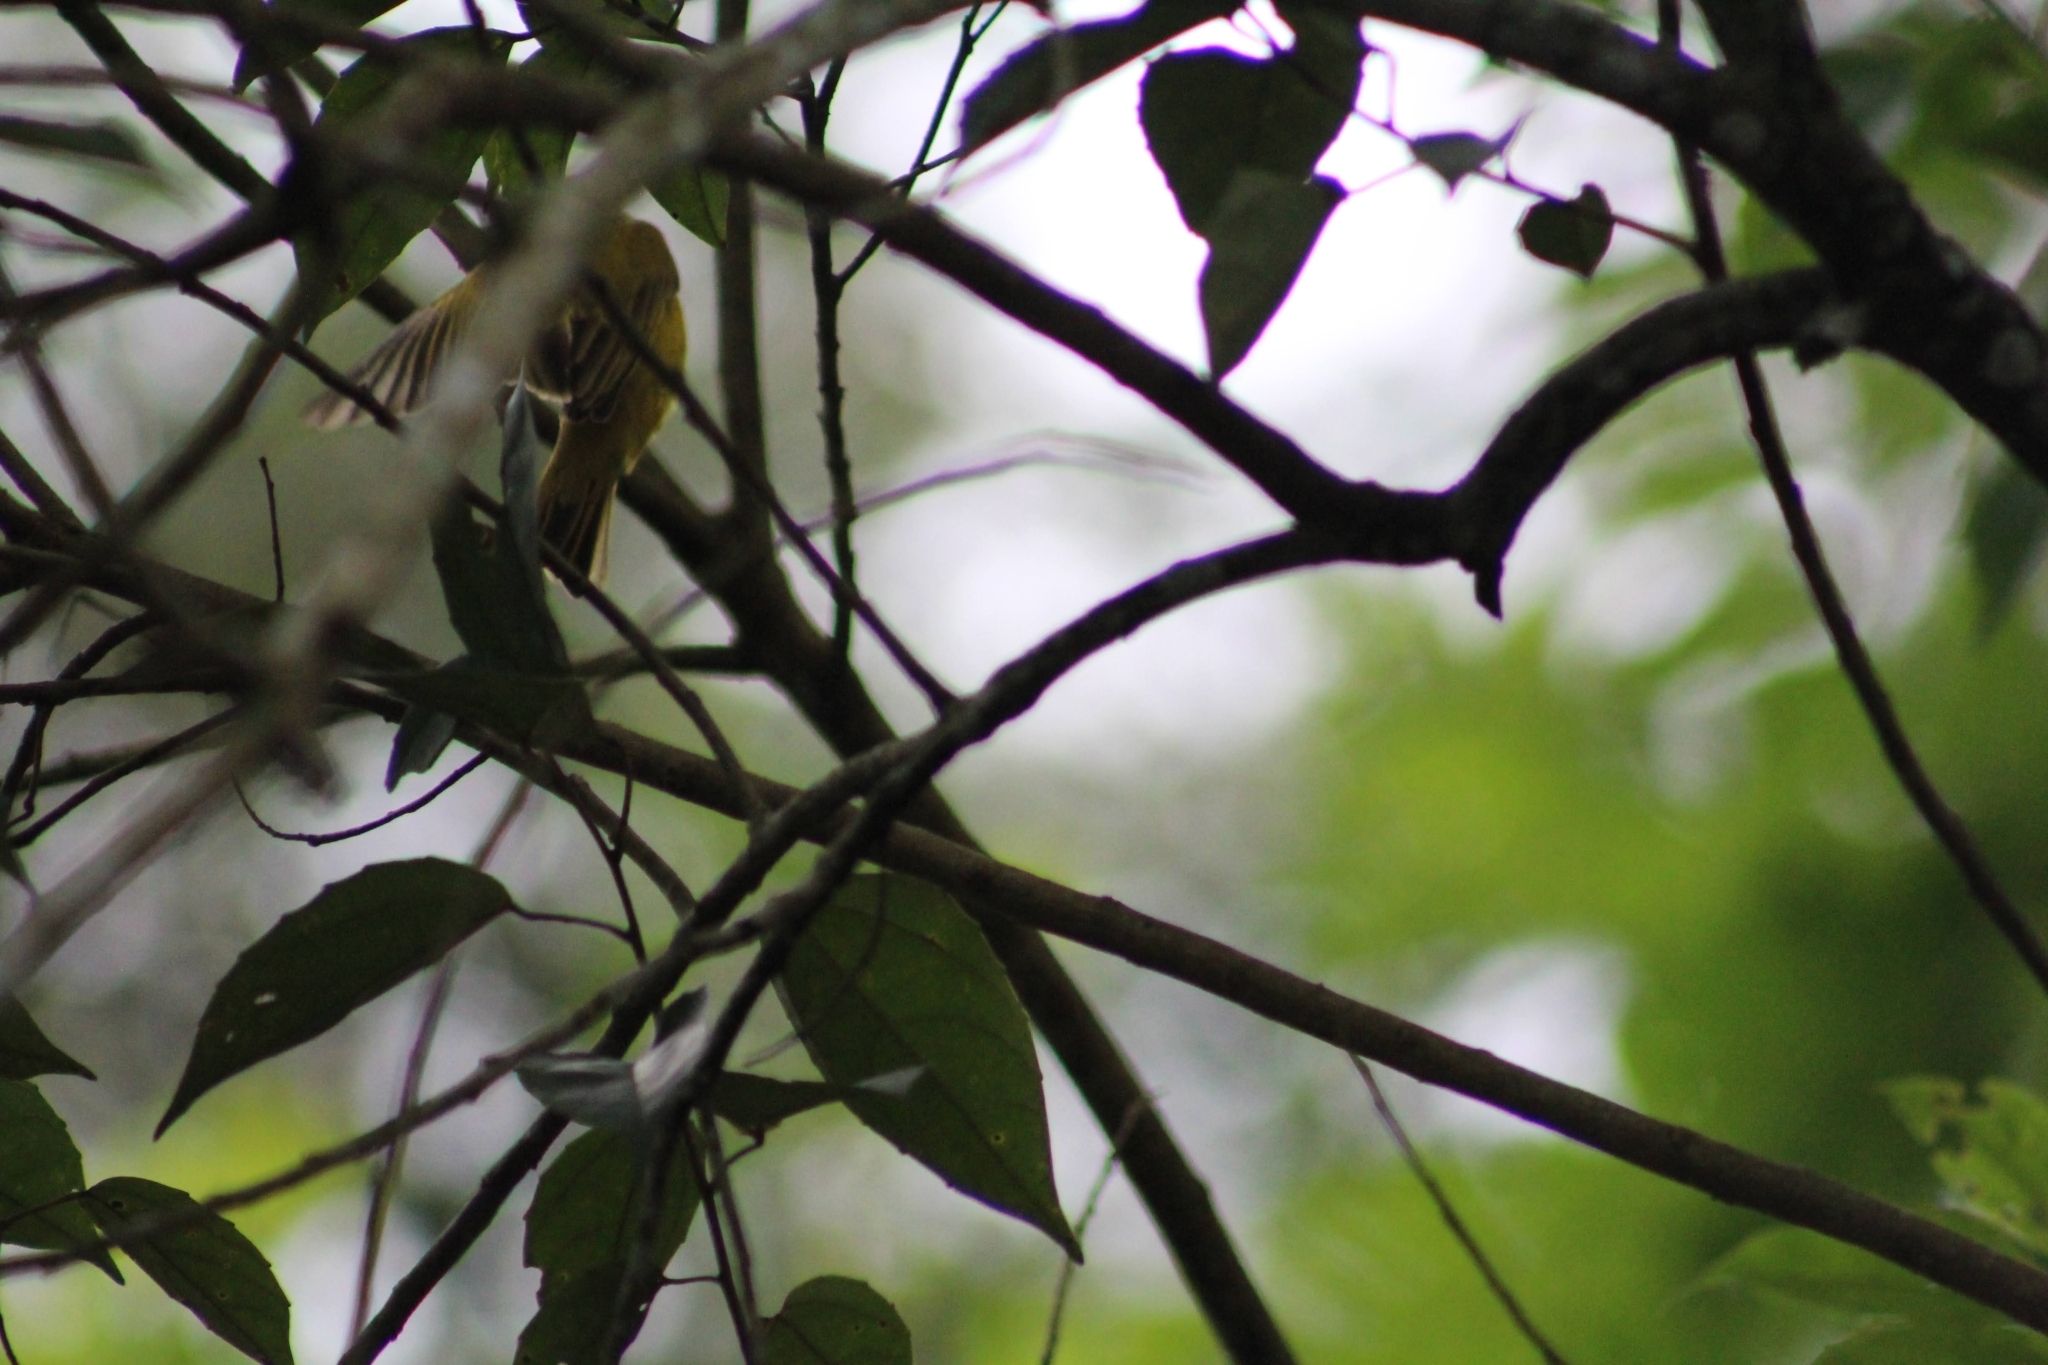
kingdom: Animalia
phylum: Chordata
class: Aves
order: Passeriformes
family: Thraupidae
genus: Sicalis
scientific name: Sicalis flaveola
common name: Saffron finch
